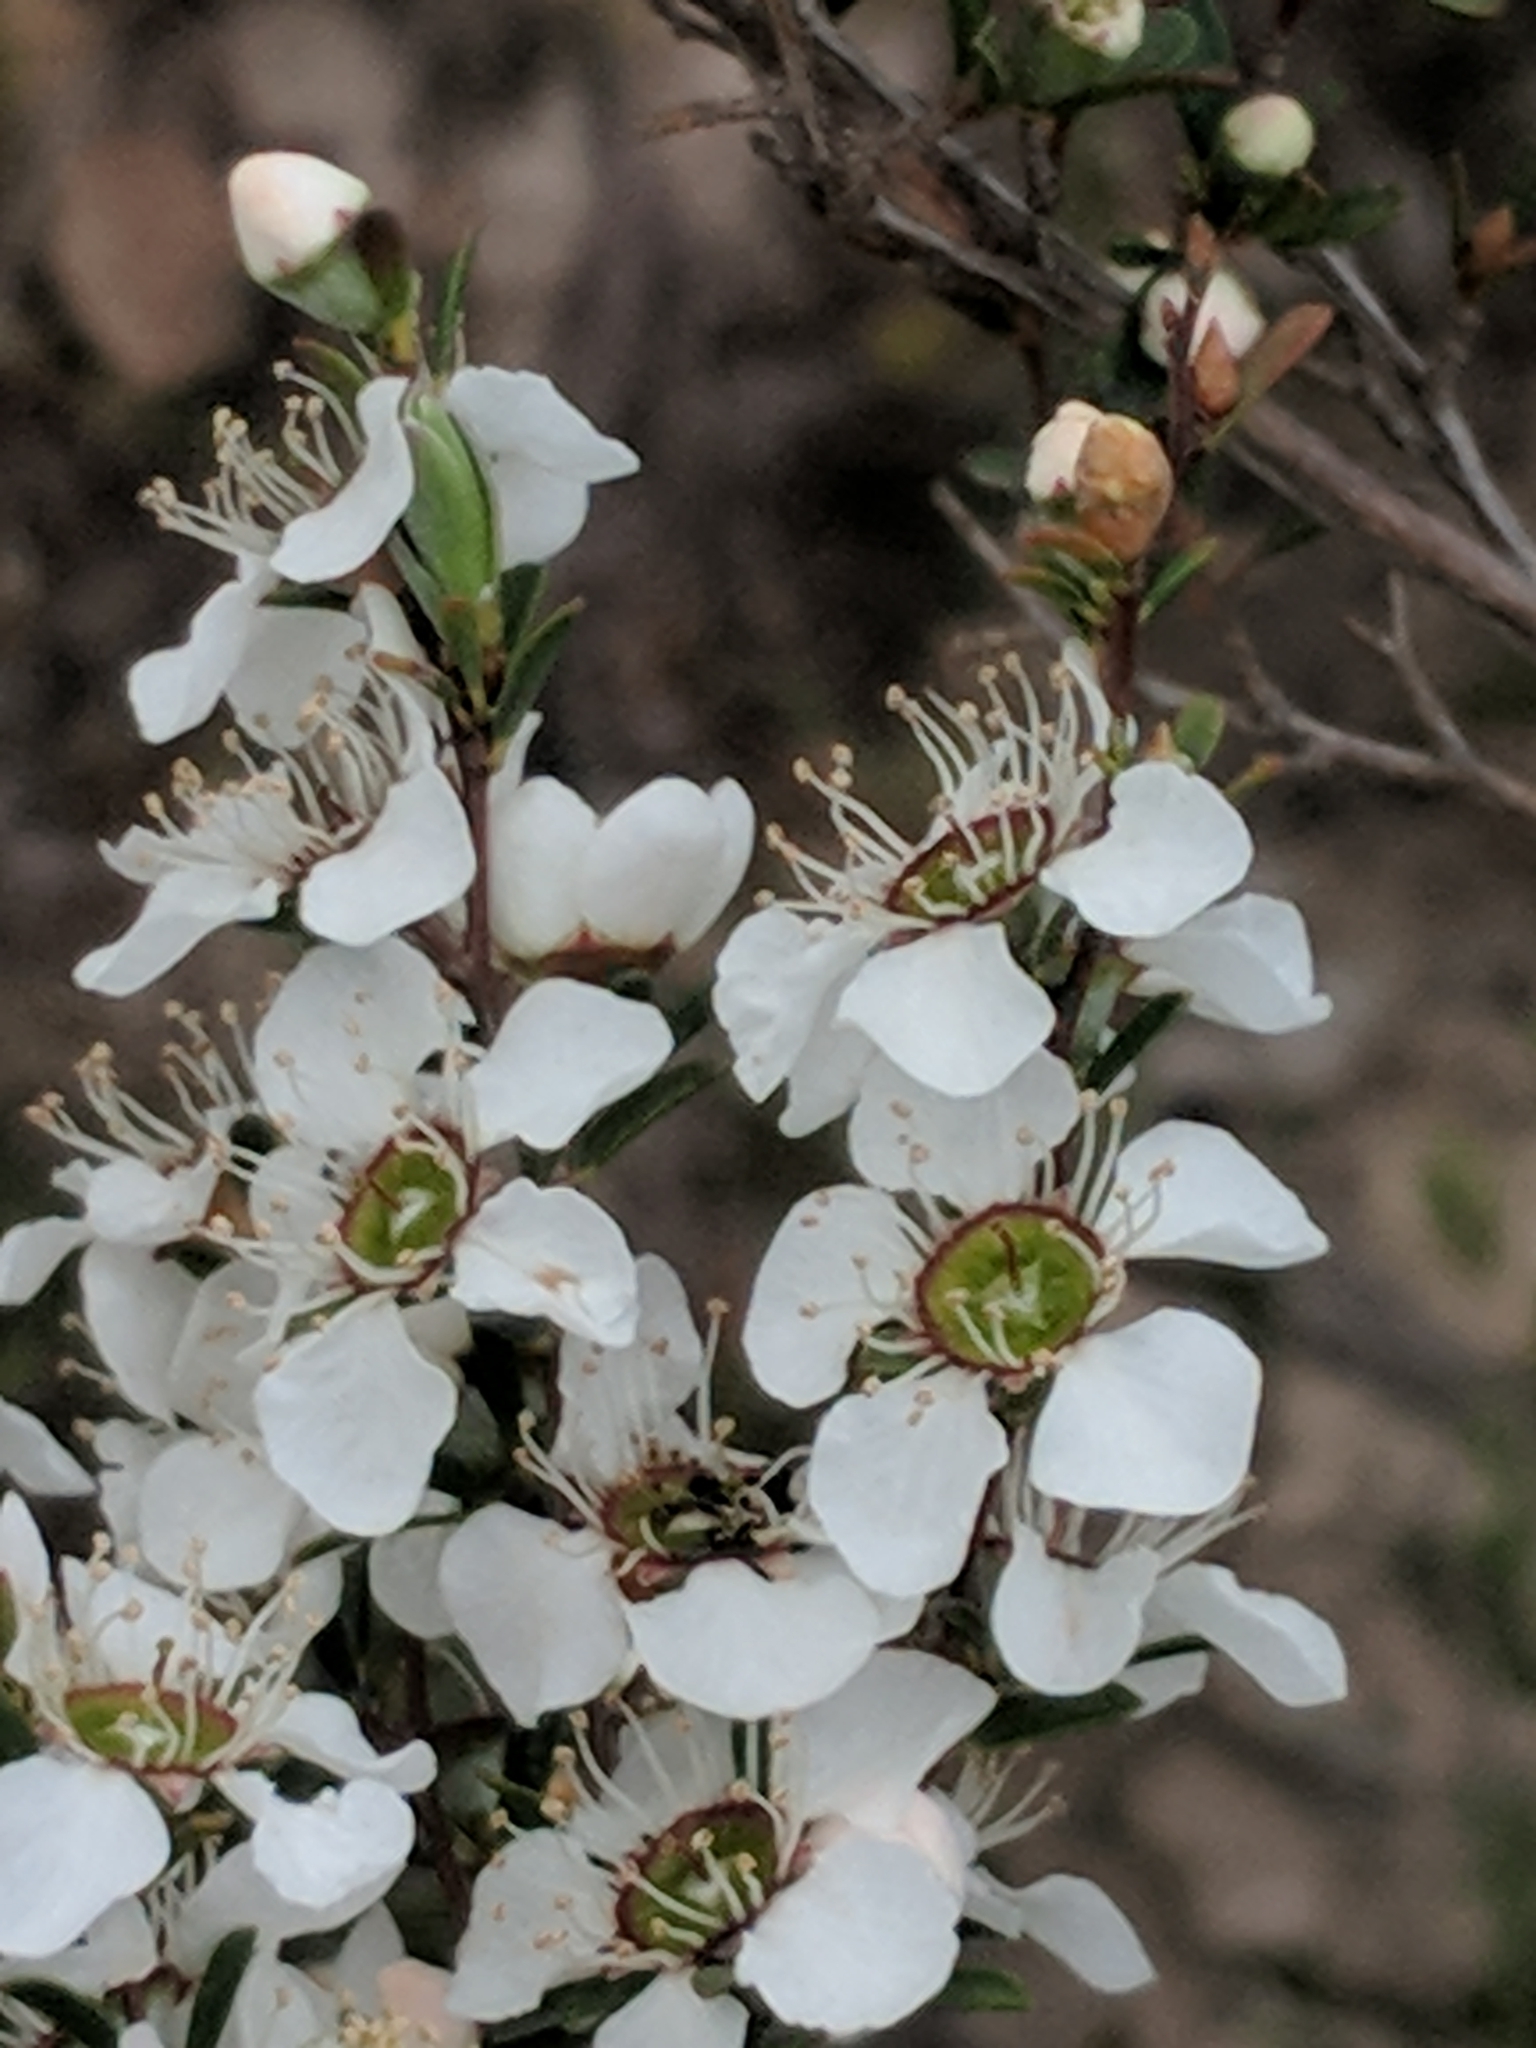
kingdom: Plantae
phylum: Tracheophyta
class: Magnoliopsida
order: Myrtales
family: Myrtaceae
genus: Leptospermum
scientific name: Leptospermum myrsinoides
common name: Heath teatree
